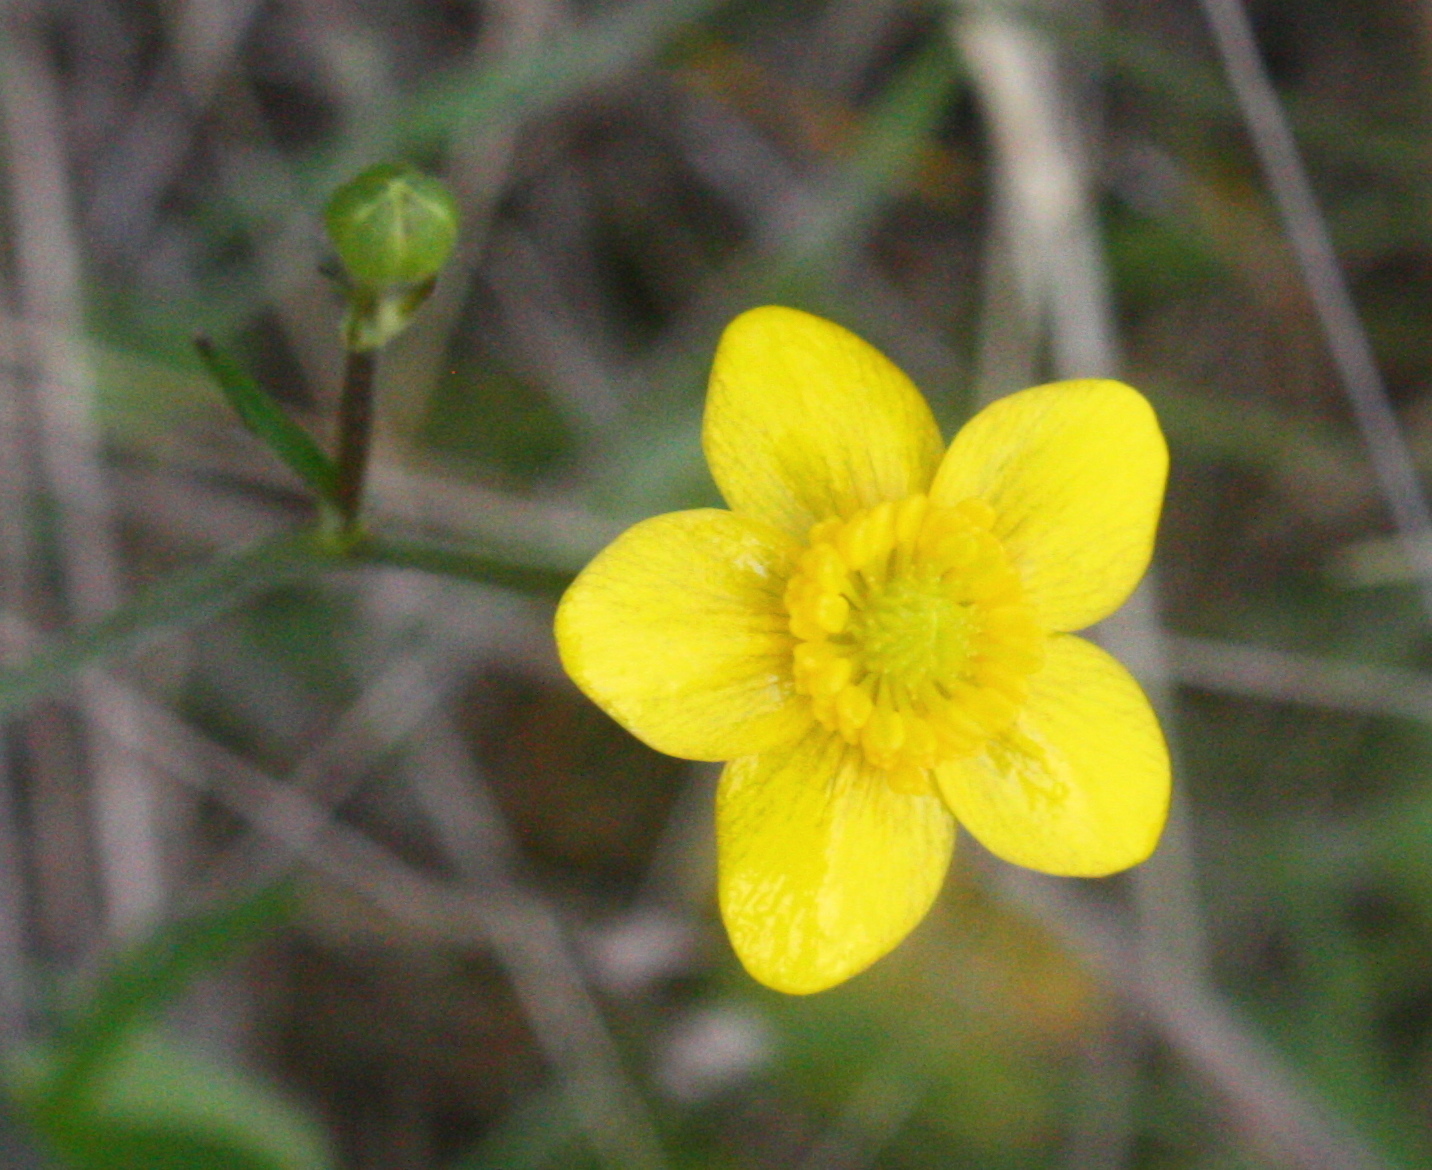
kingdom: Plantae
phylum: Tracheophyta
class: Magnoliopsida
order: Ranunculales
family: Ranunculaceae
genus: Ranunculus
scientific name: Ranunculus occidentalis
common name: Western buttercup
